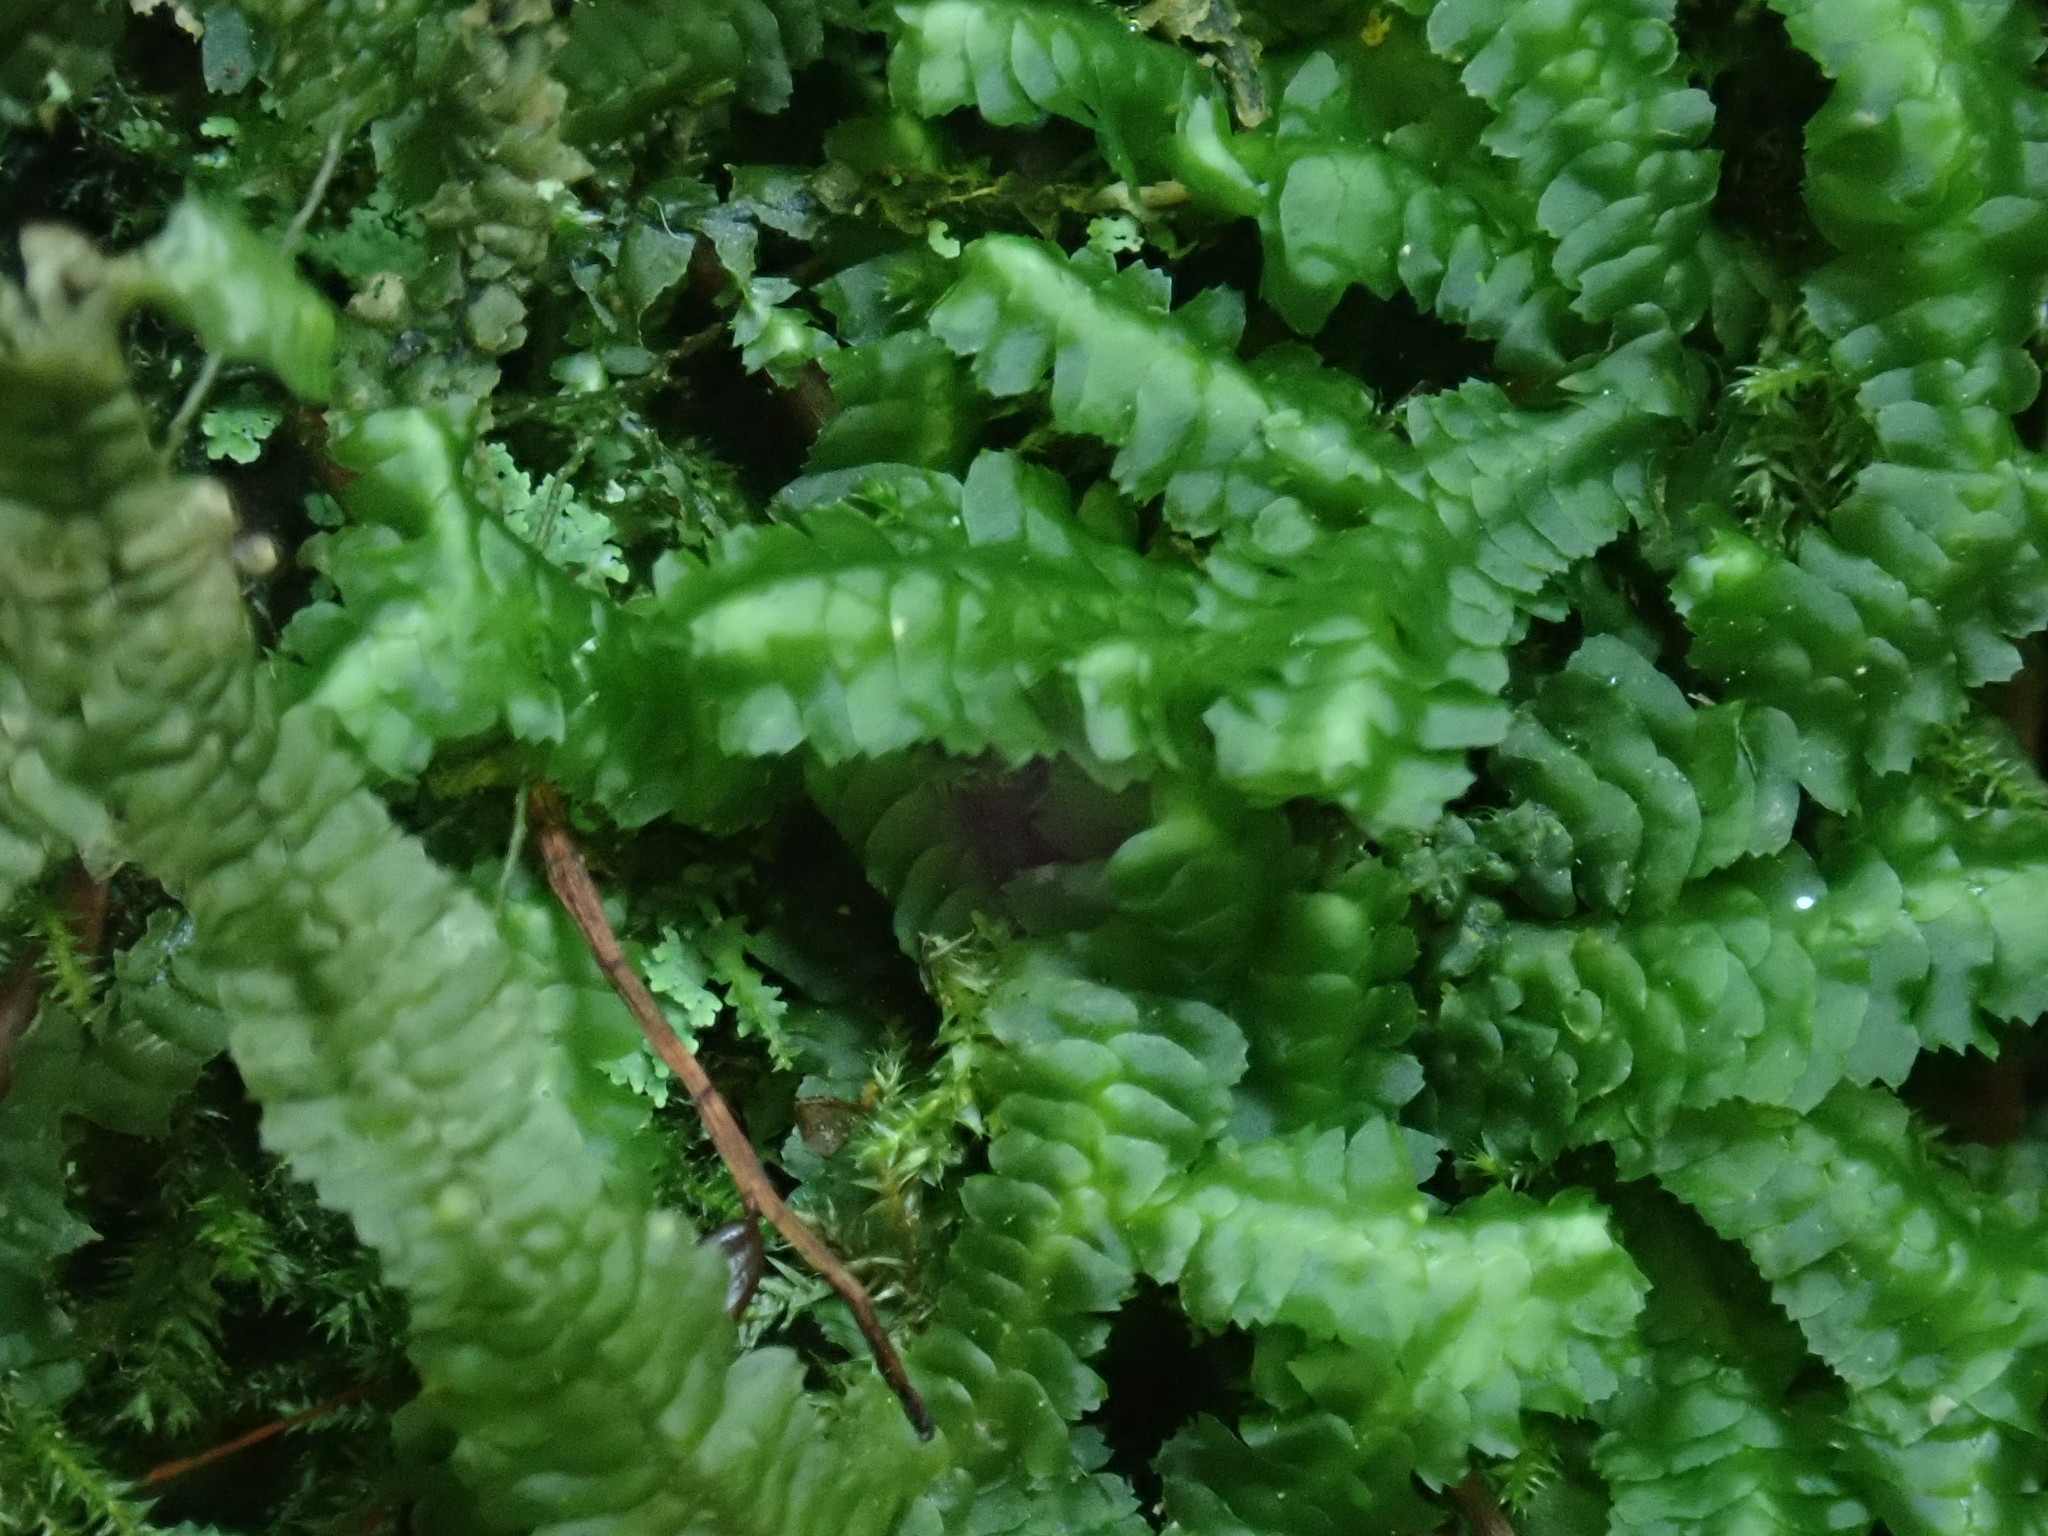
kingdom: Plantae
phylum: Marchantiophyta
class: Jungermanniopsida
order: Jungermanniales
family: Lepidoziaceae
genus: Bazzania
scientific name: Bazzania trilobata
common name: Three-lobed whipwort
